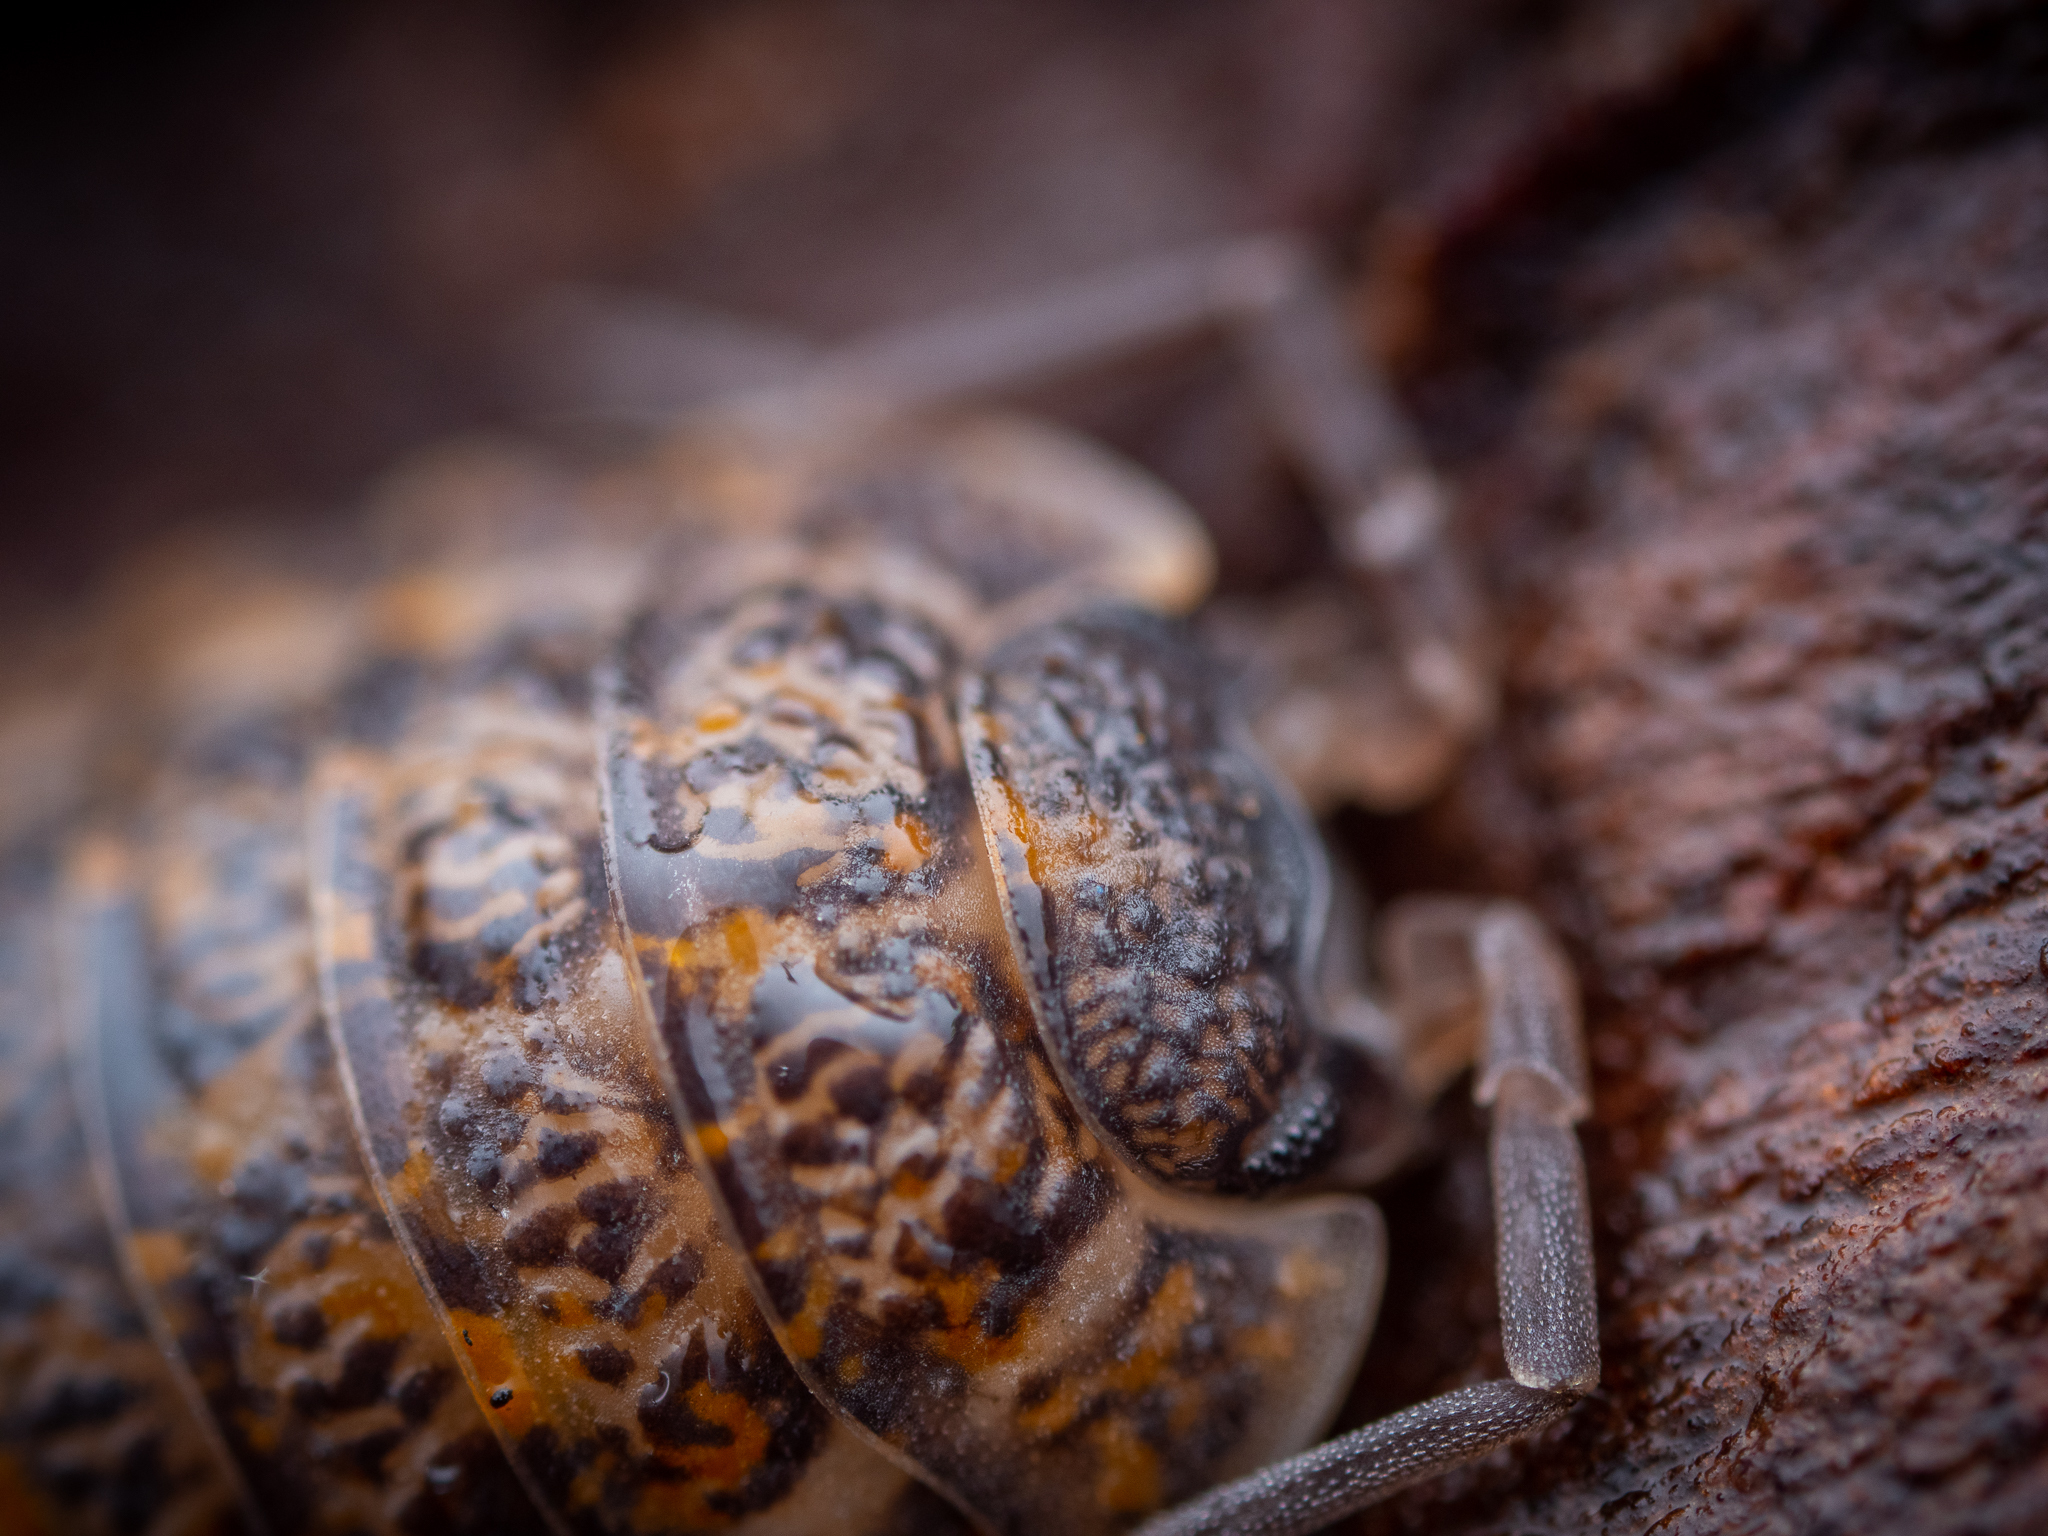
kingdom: Animalia
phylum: Arthropoda
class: Malacostraca
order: Isopoda
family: Trachelipodidae
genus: Trachelipus
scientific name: Trachelipus rathkii
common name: Isopod
